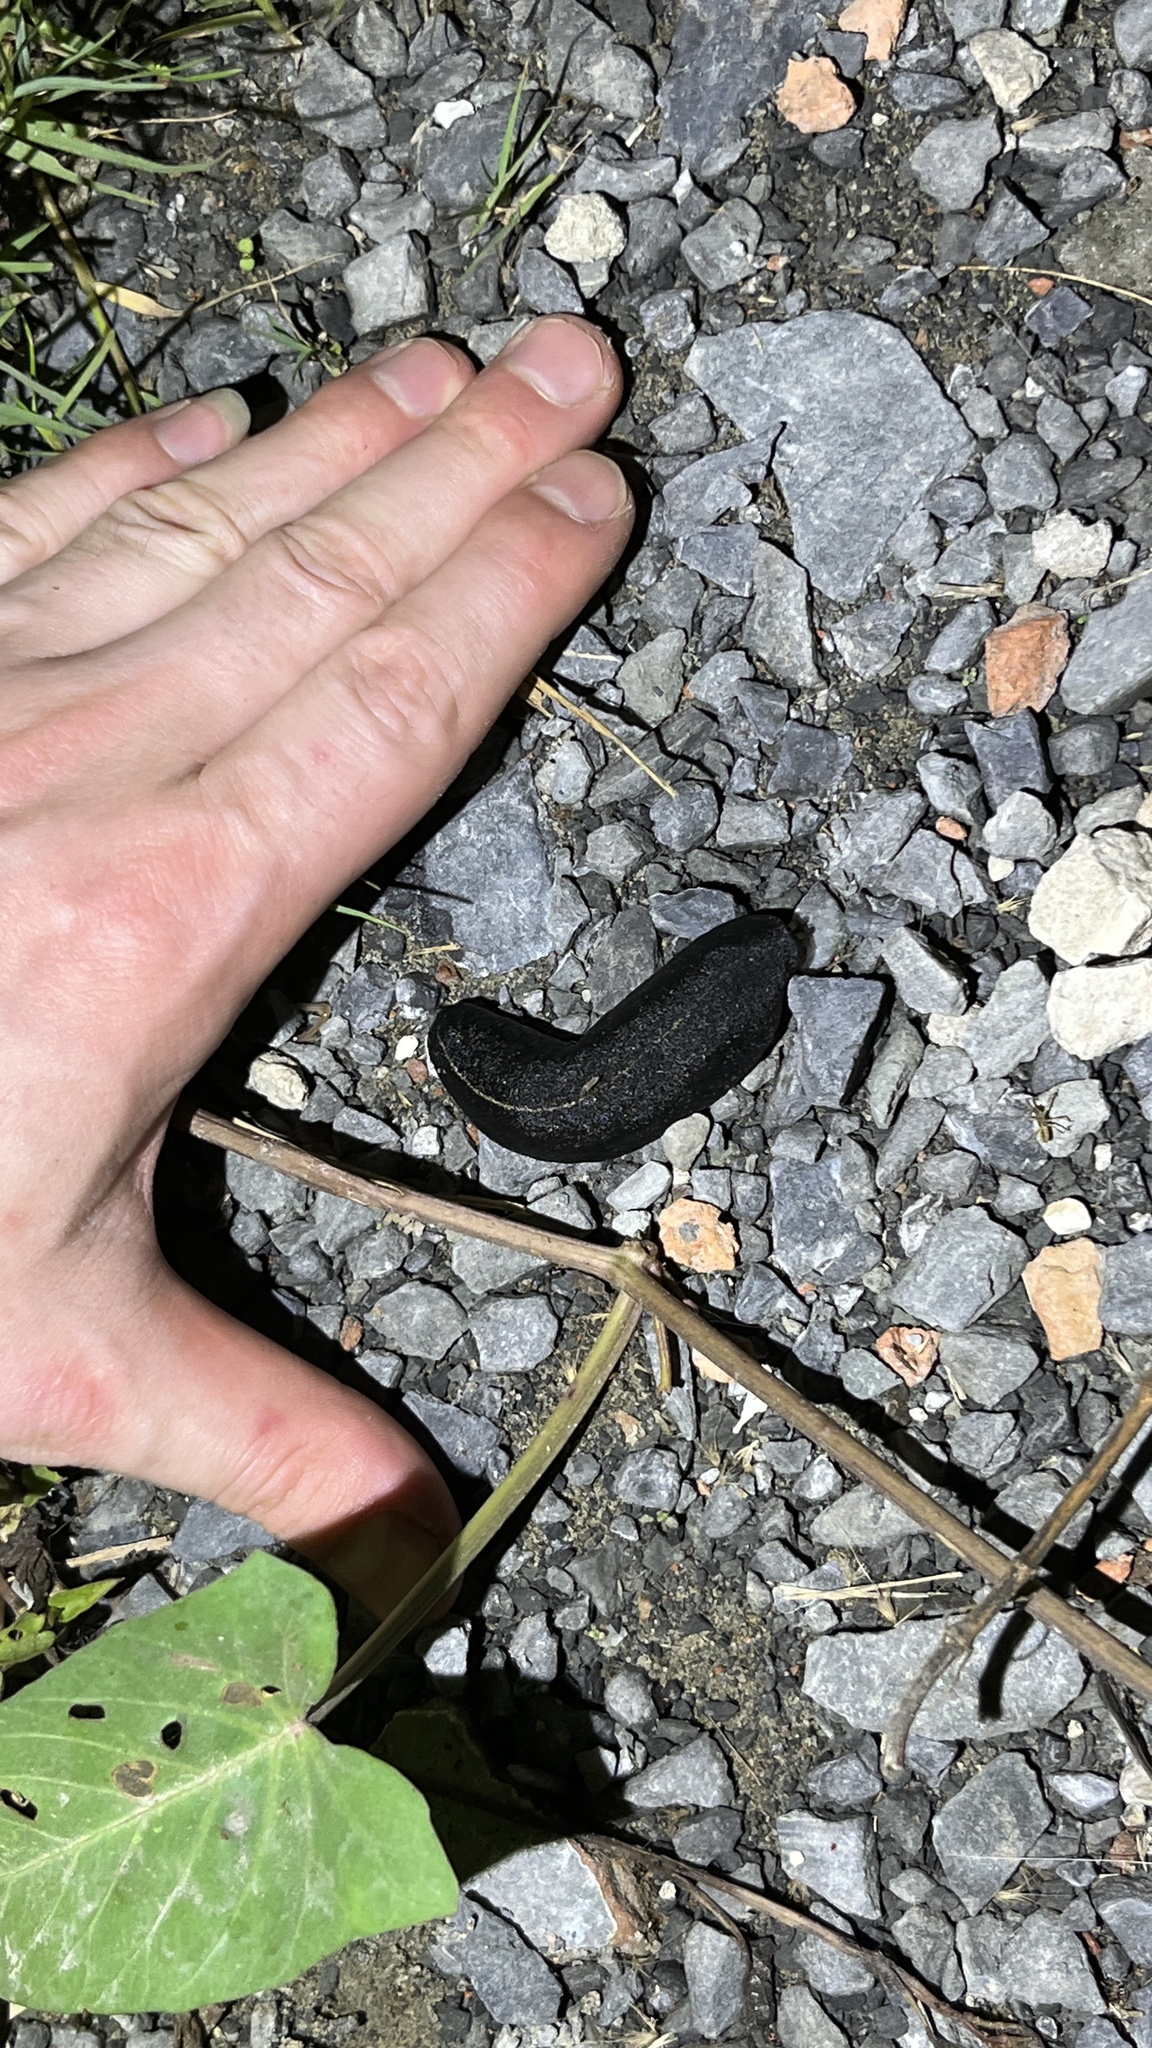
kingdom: Animalia
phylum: Mollusca
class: Gastropoda
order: Systellommatophora
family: Veronicellidae
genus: Laevicaulis
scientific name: Laevicaulis alte
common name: Tropical leatherleaf
